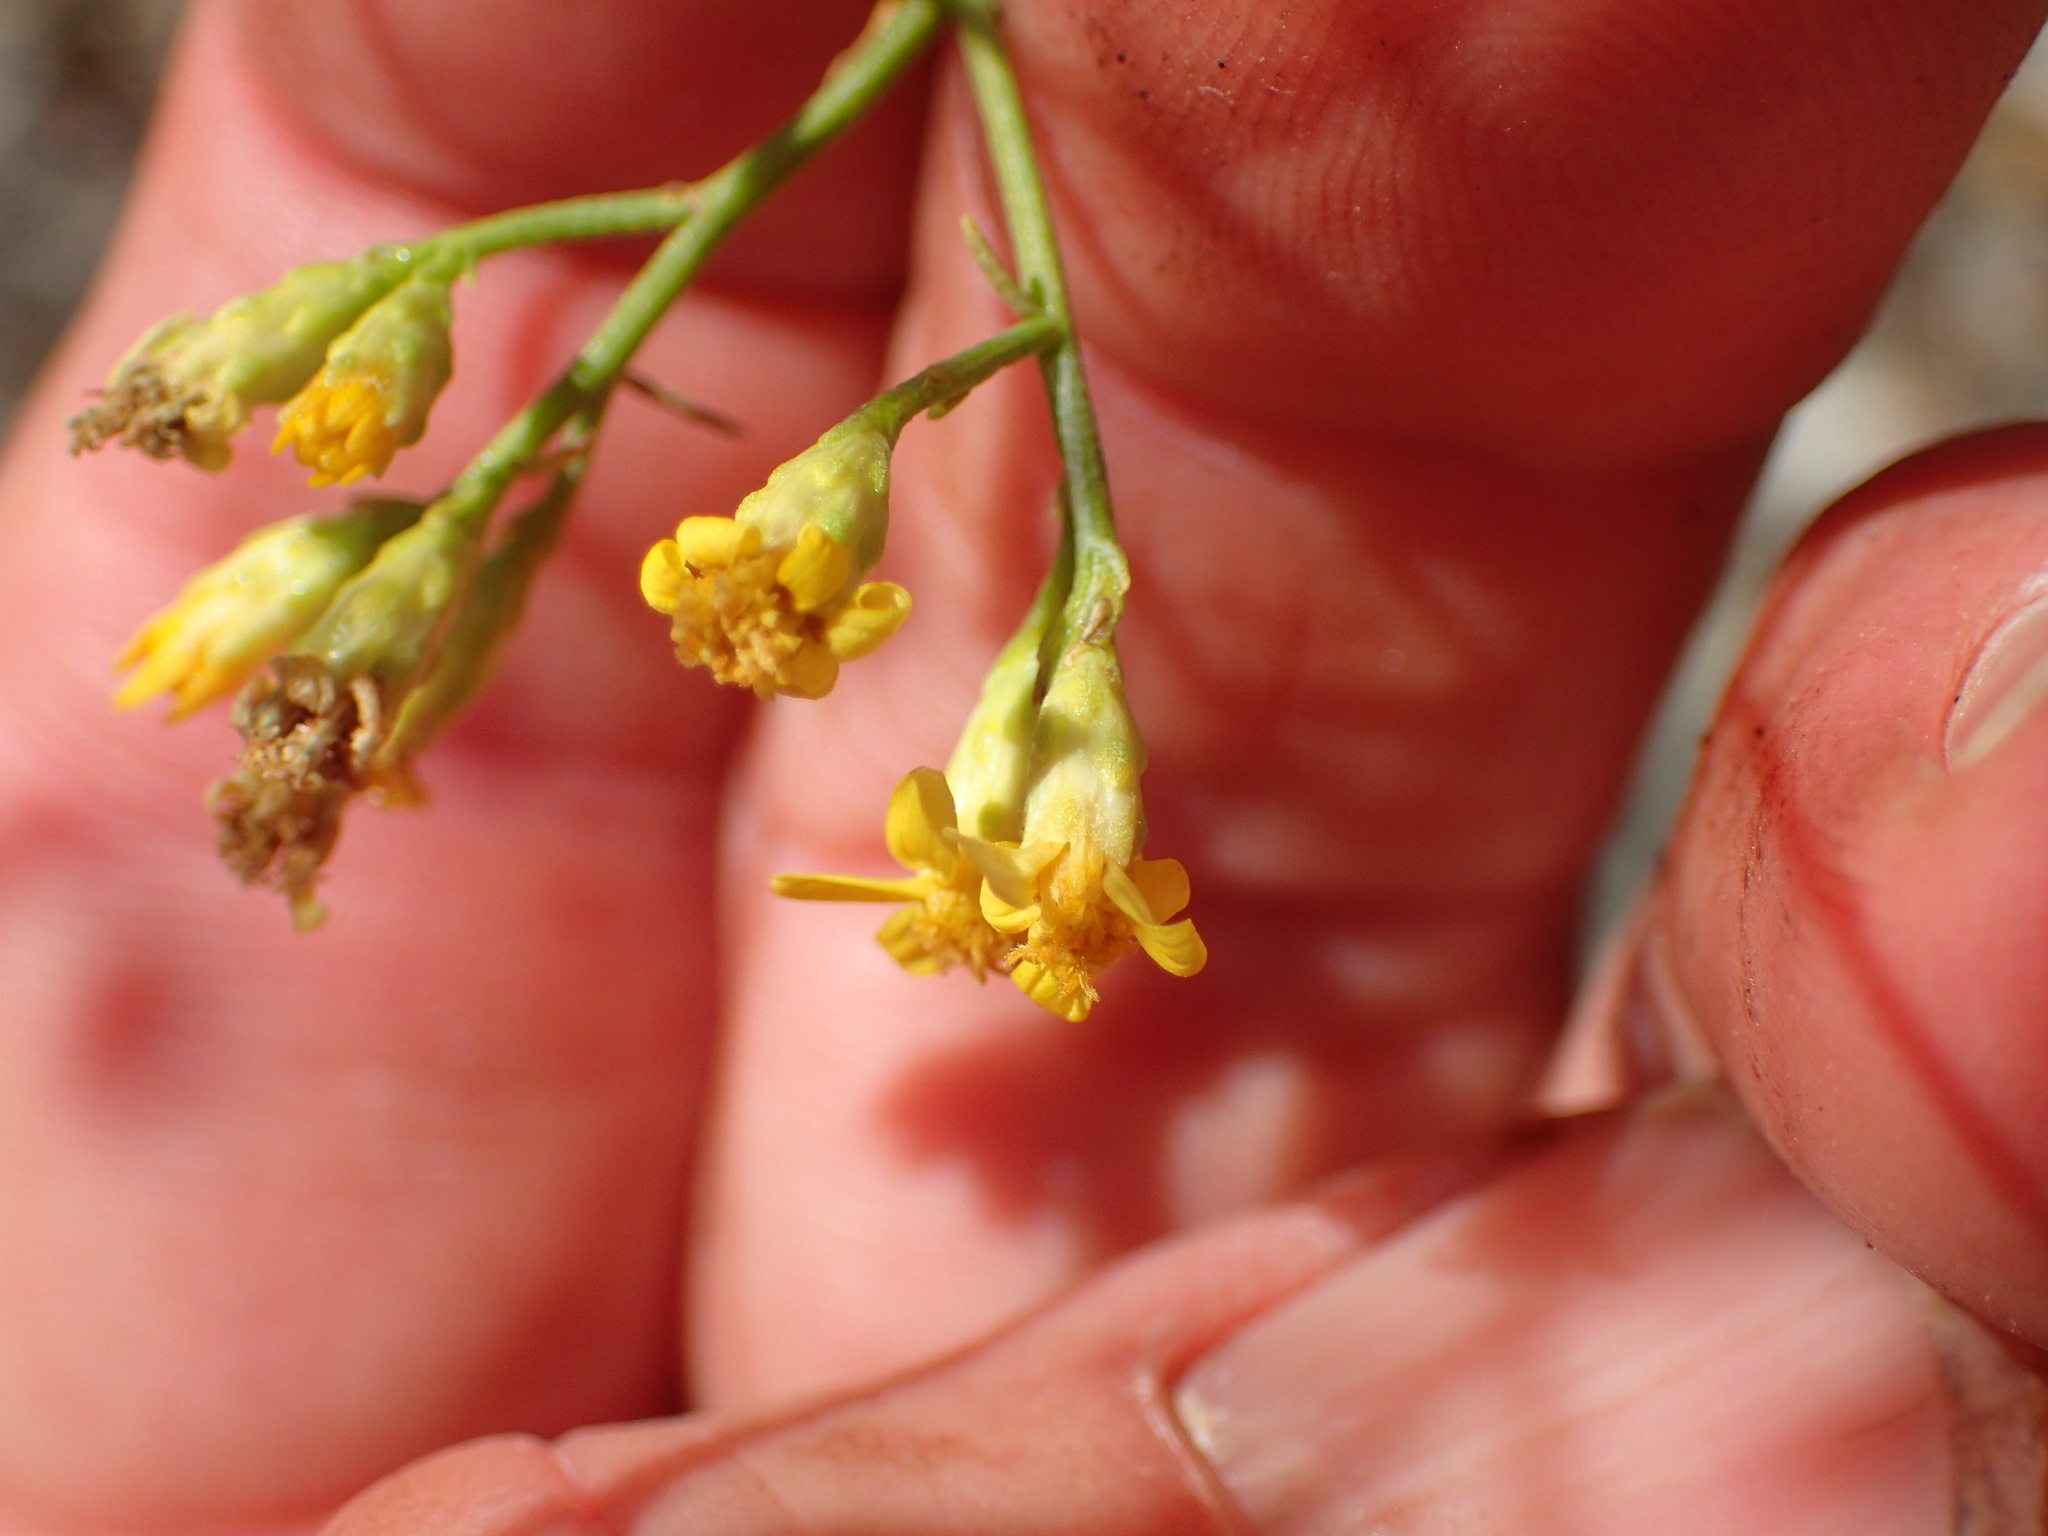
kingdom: Plantae
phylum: Tracheophyta
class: Magnoliopsida
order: Asterales
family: Asteraceae
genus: Gutierrezia
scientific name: Gutierrezia californica
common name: California matchweed
